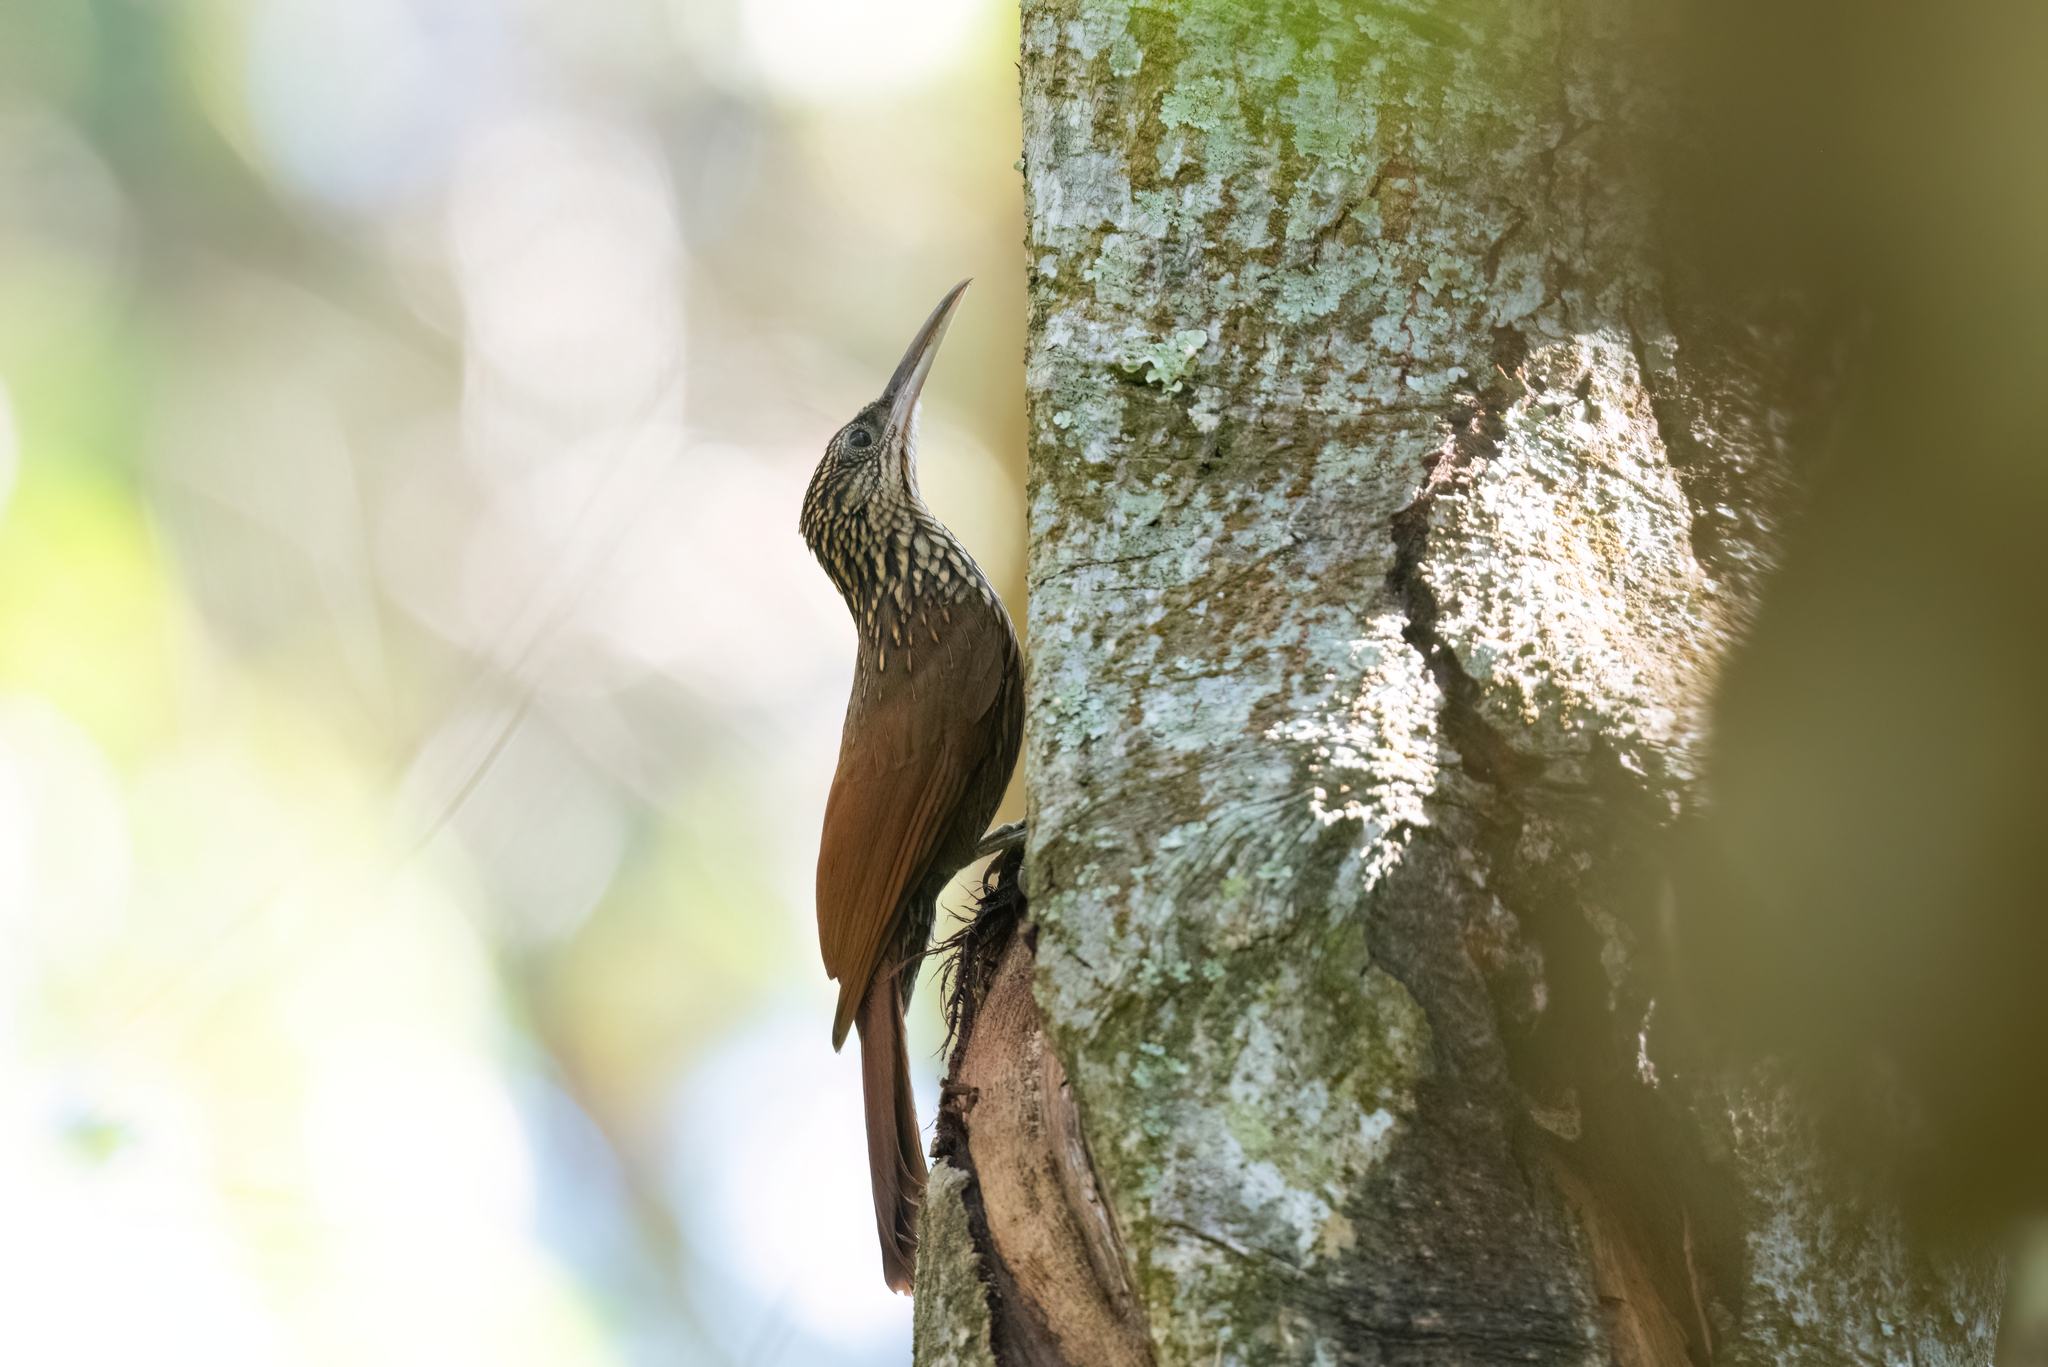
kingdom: Animalia
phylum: Chordata
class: Aves
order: Passeriformes
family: Furnariidae
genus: Xiphorhynchus
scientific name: Xiphorhynchus flavigaster
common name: Ivory-billed woodcreeper
